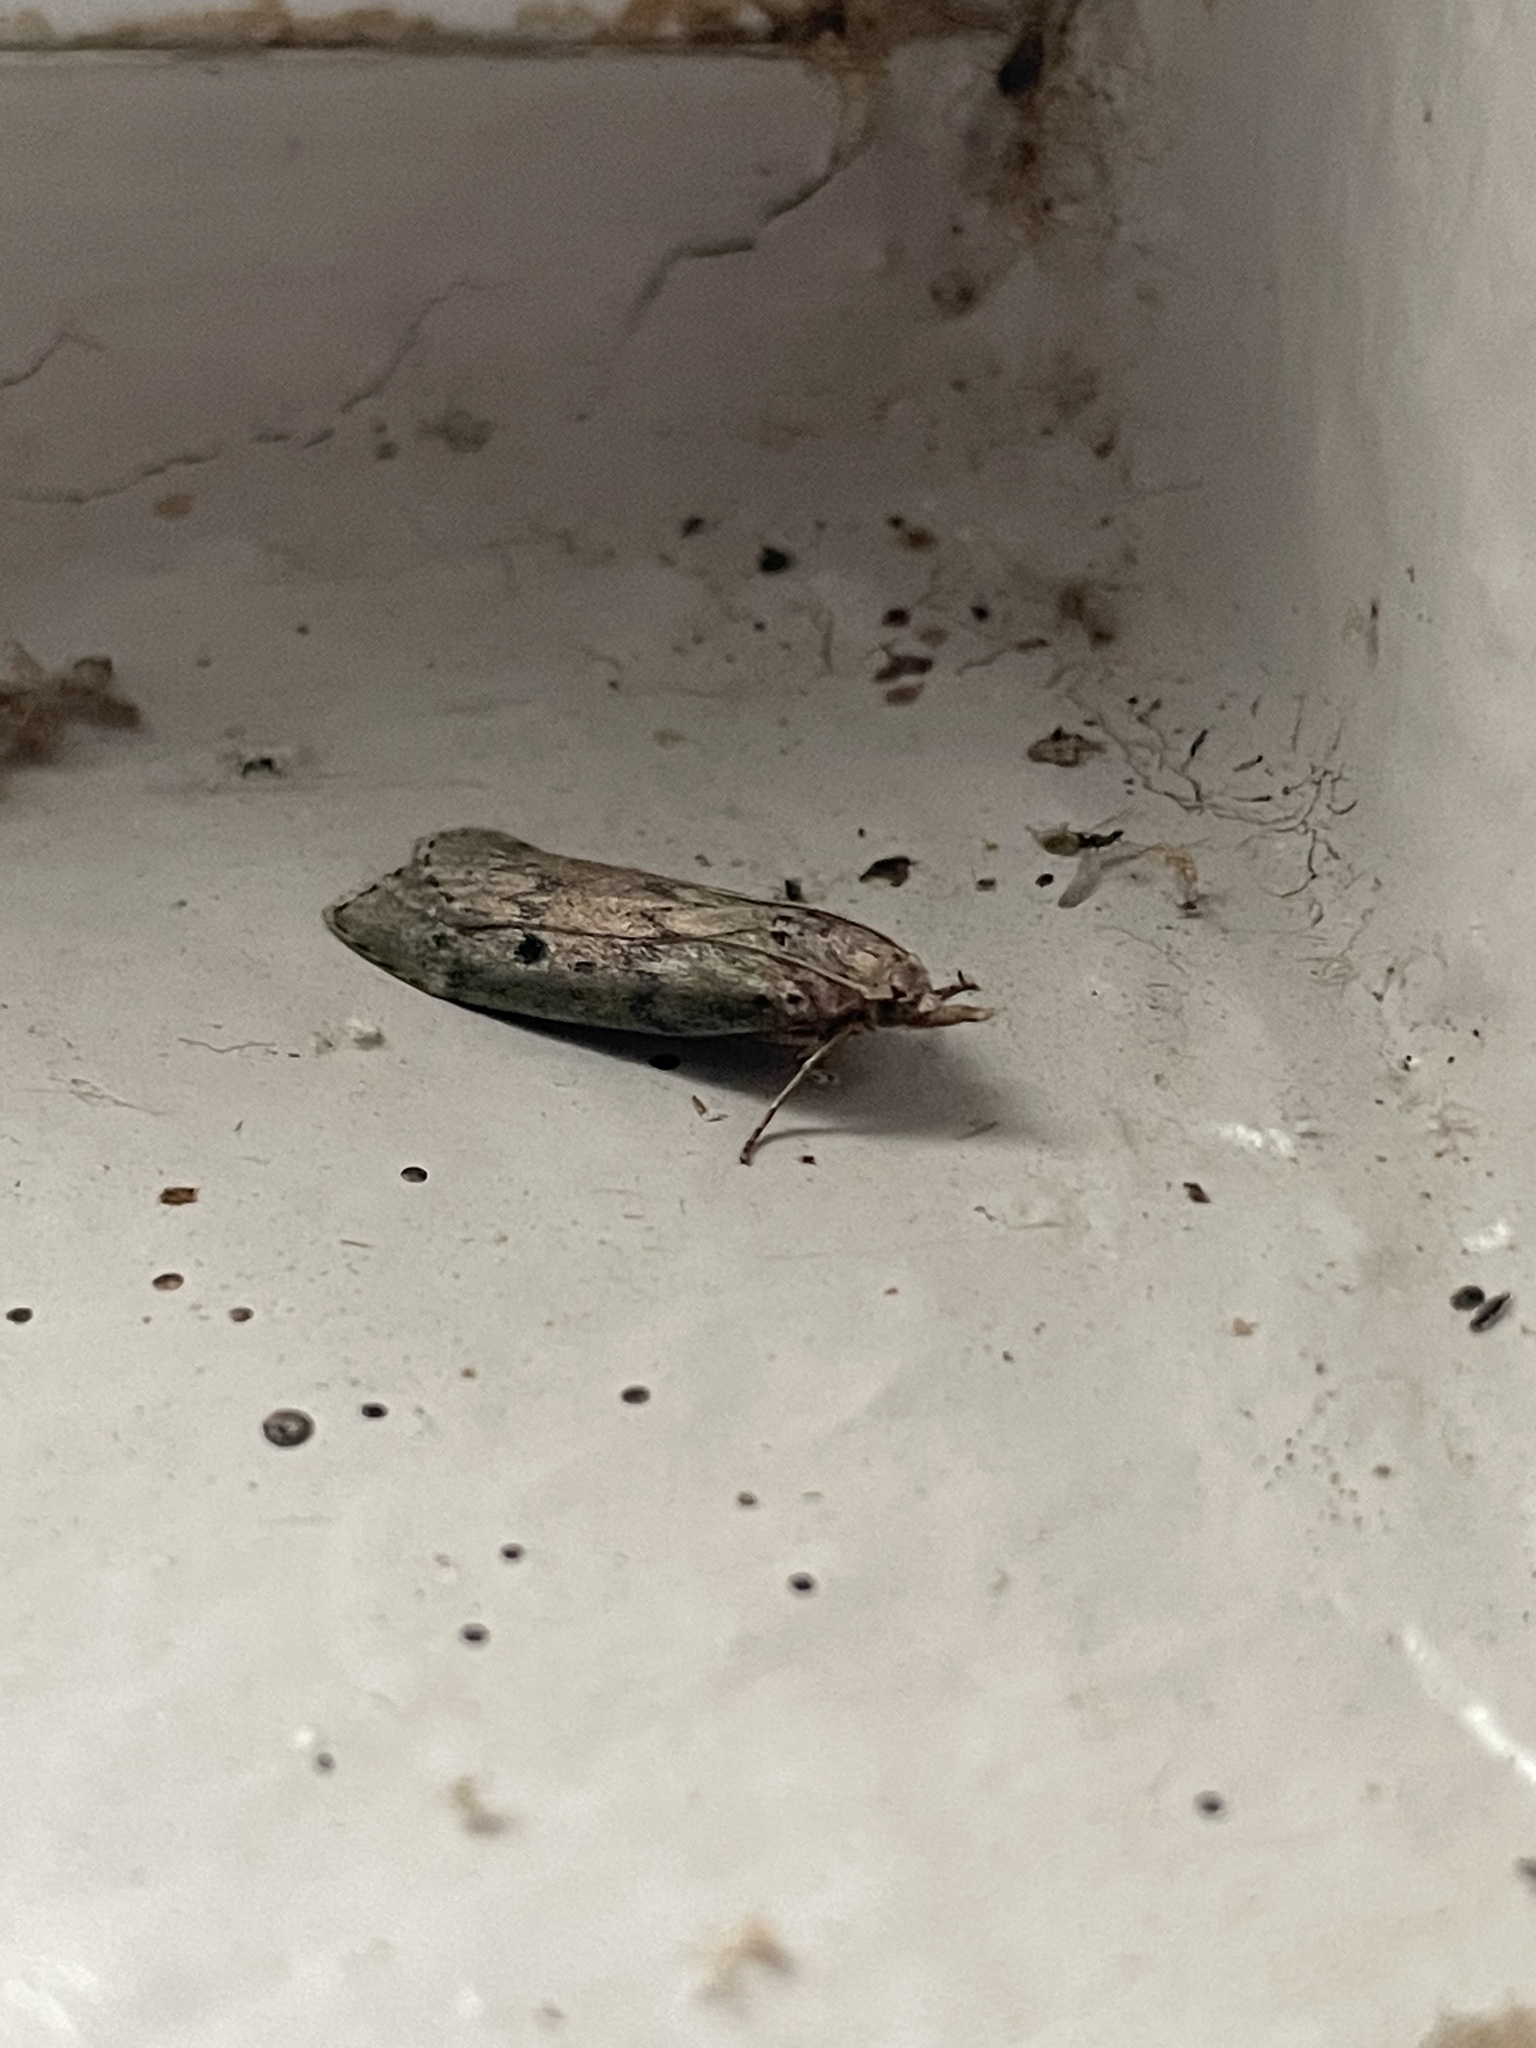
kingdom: Animalia
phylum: Arthropoda
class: Insecta
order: Lepidoptera
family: Pyralidae
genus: Aphomia
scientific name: Aphomia sociella
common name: Bee moth
